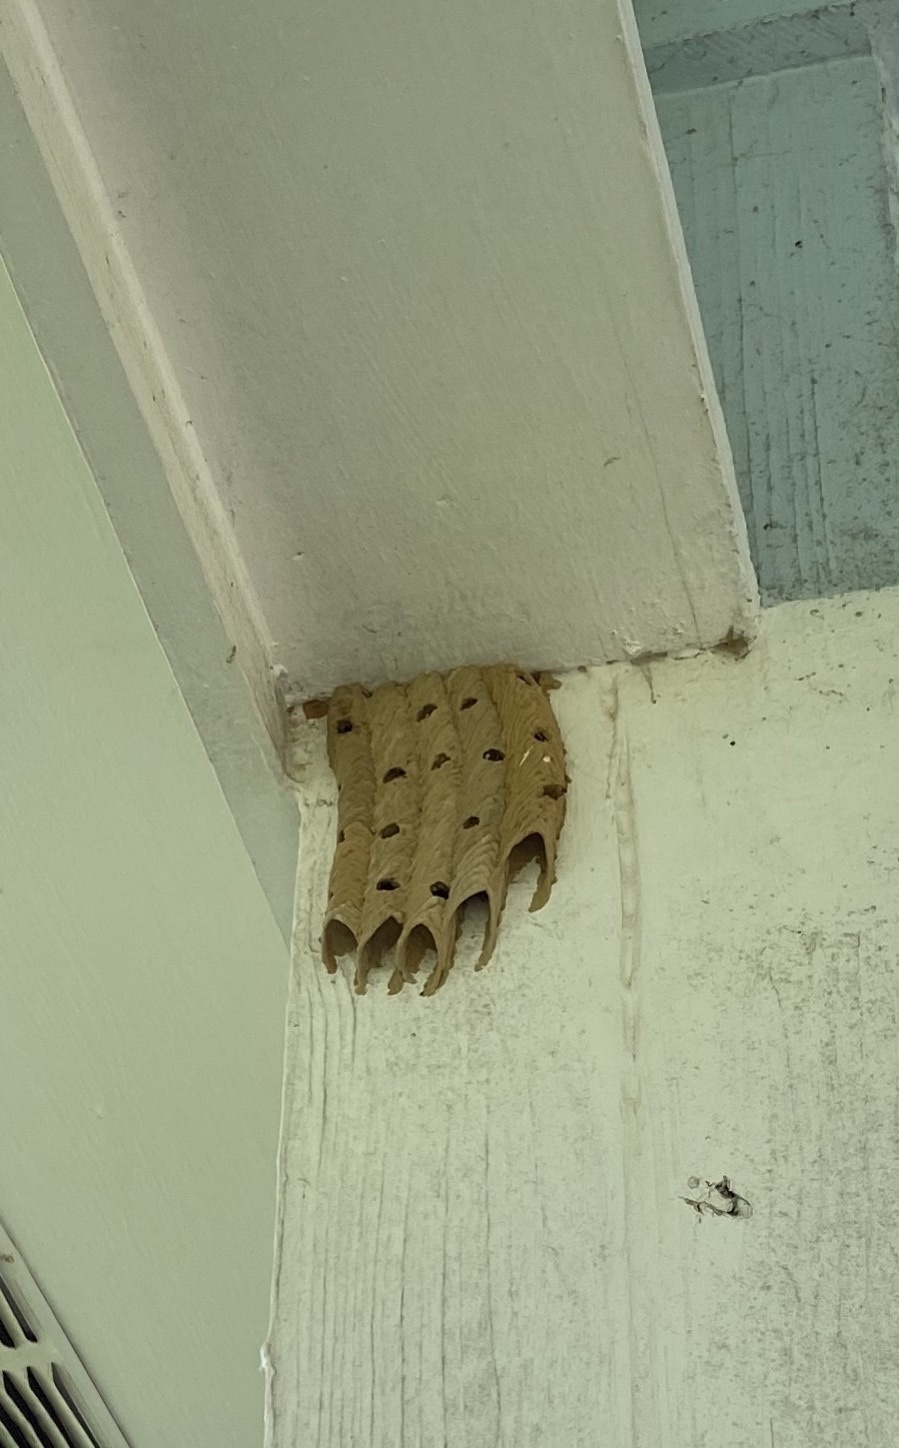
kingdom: Animalia
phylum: Arthropoda
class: Insecta
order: Hymenoptera
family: Crabronidae
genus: Trypoxylon
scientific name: Trypoxylon politum
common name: Organ-pipe mud-dauber wasp
